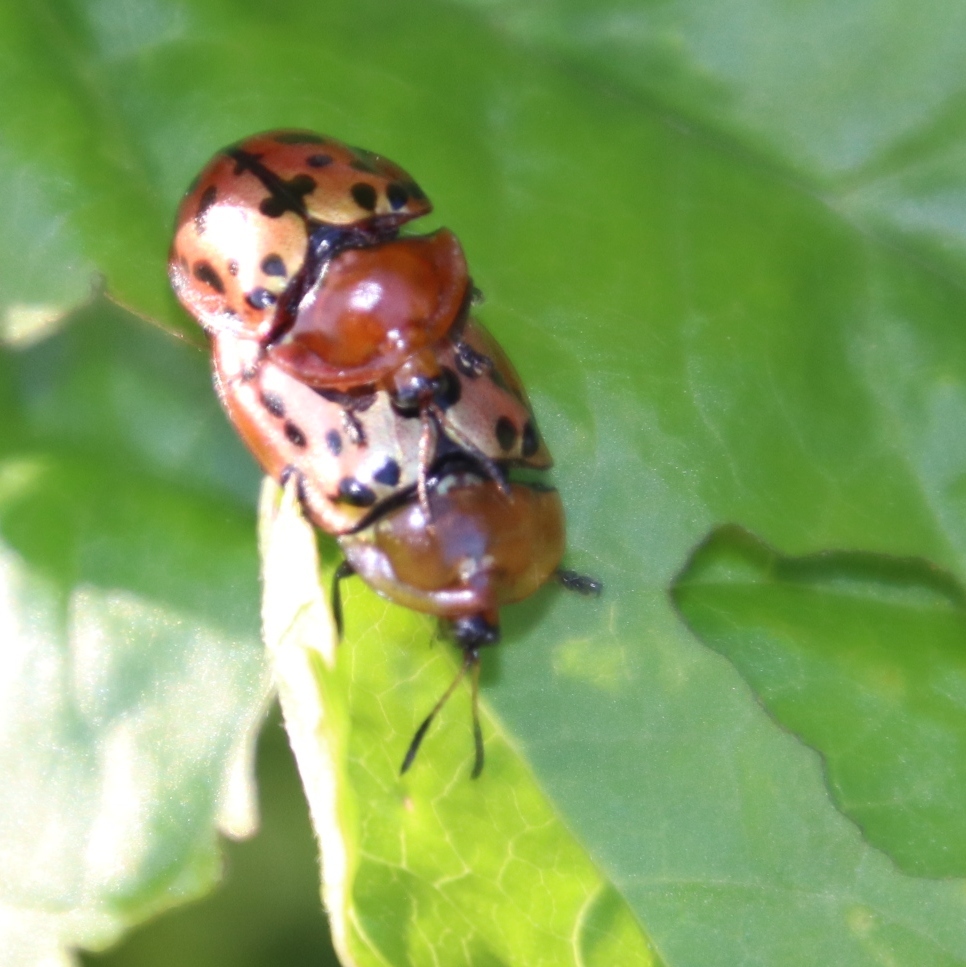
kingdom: Animalia
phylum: Arthropoda
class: Insecta
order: Coleoptera
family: Chrysomelidae
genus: Conchyloctenia
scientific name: Conchyloctenia punctata
